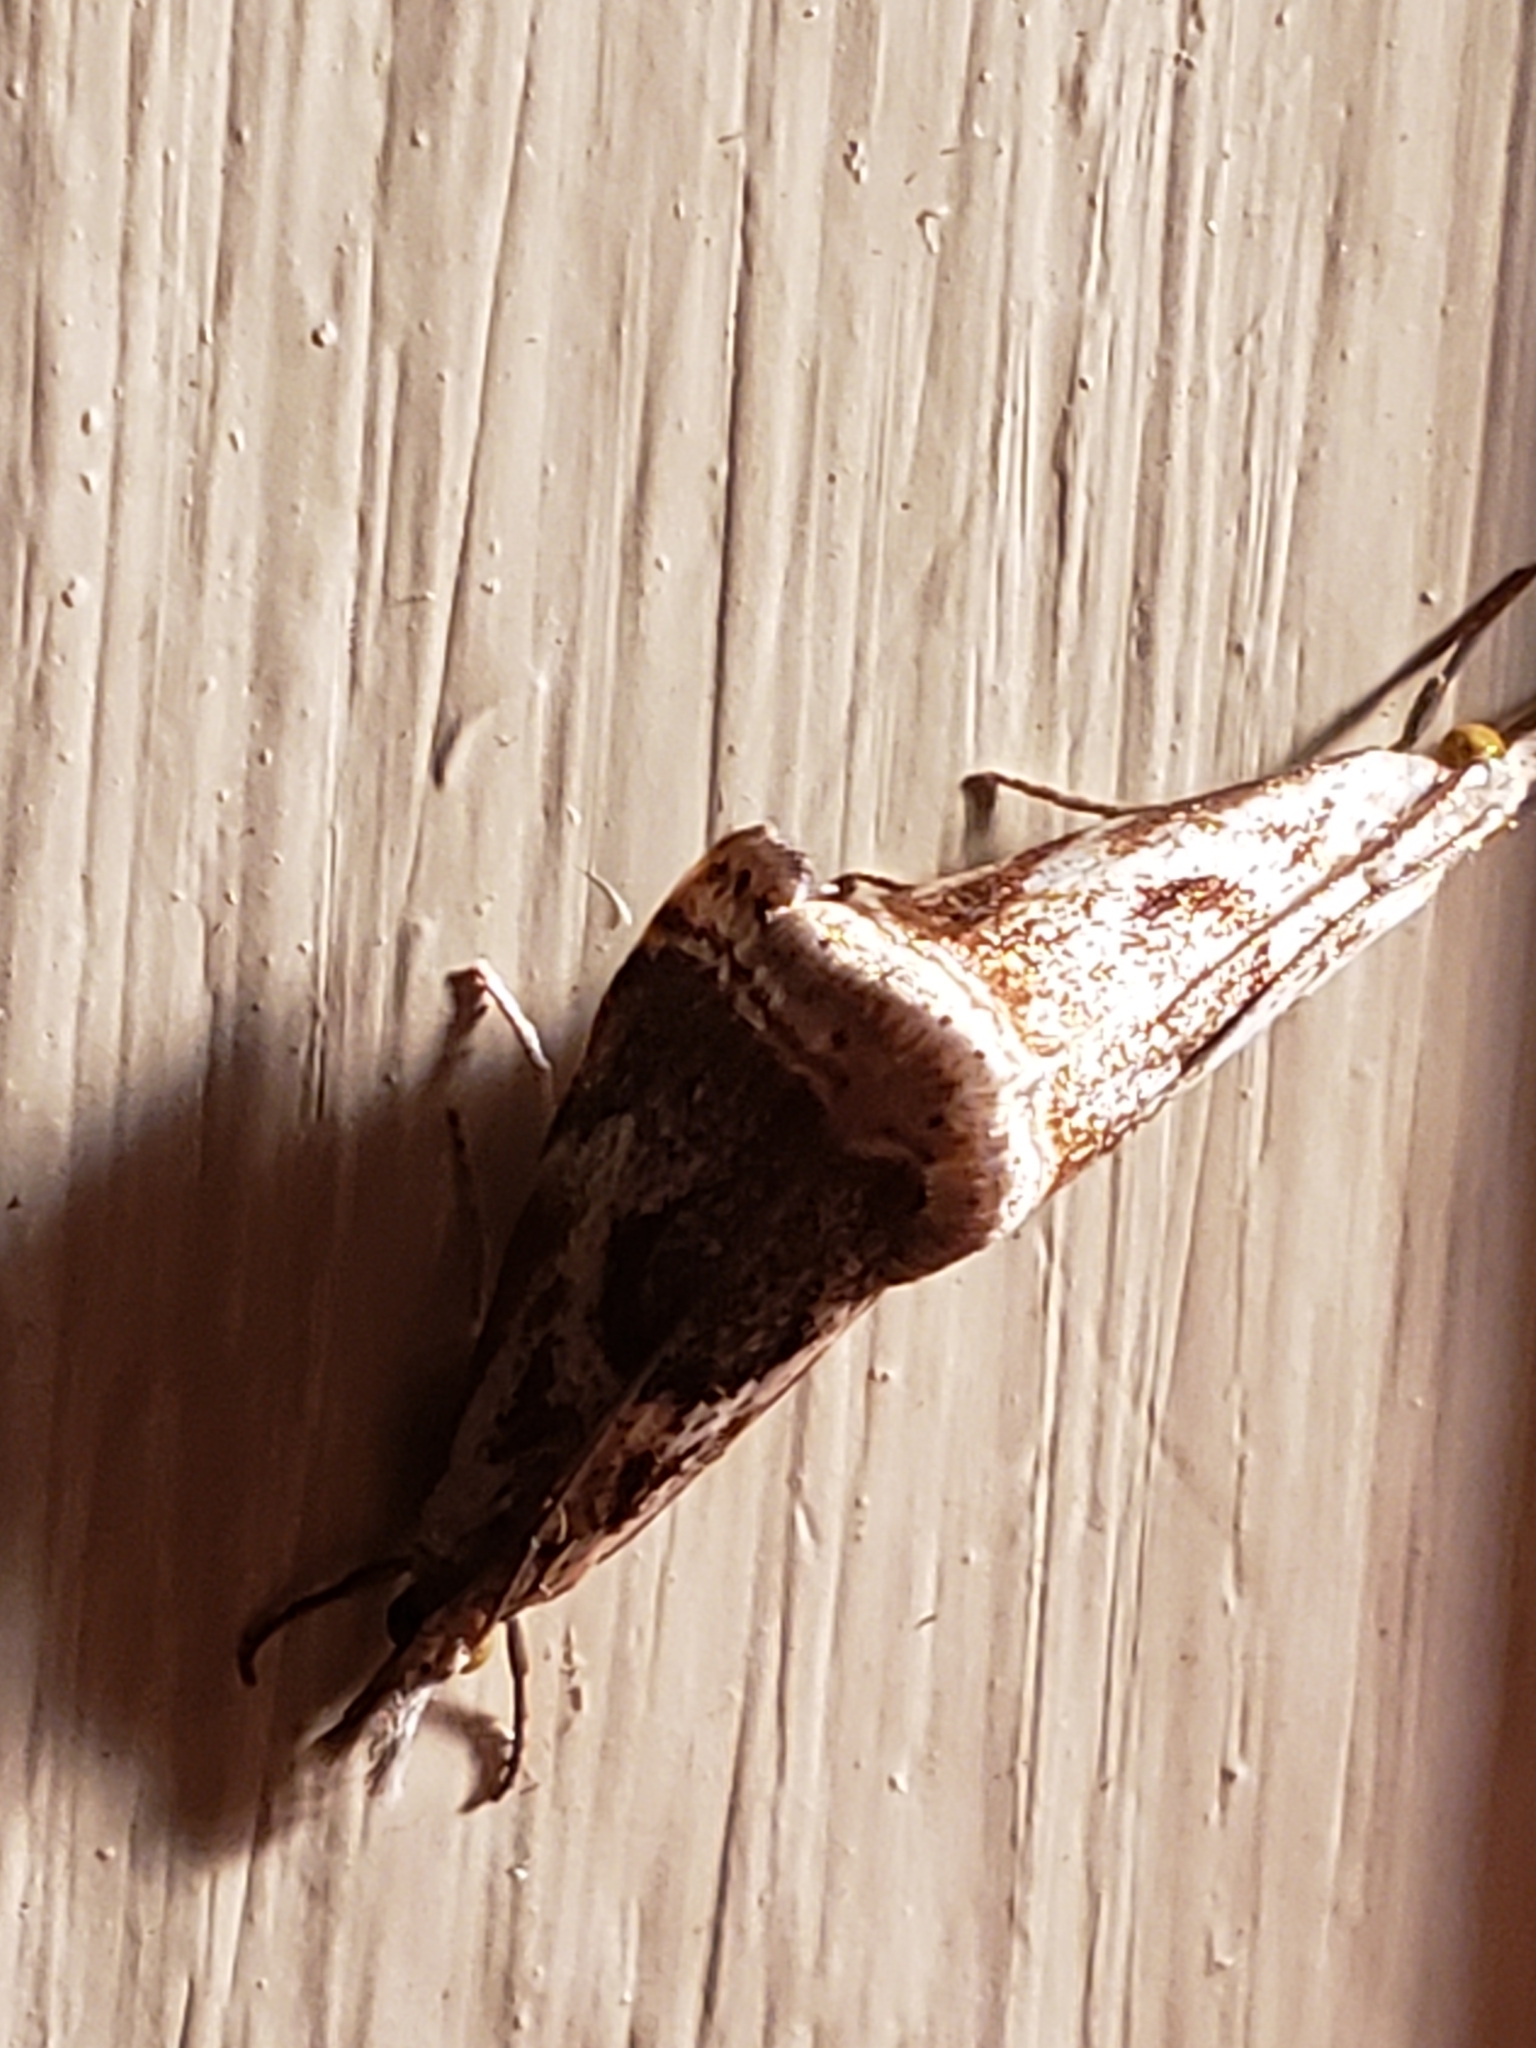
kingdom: Animalia
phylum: Arthropoda
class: Insecta
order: Lepidoptera
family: Crambidae
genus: Microcrambus
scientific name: Microcrambus elegans
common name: Elegant grass-veneer
